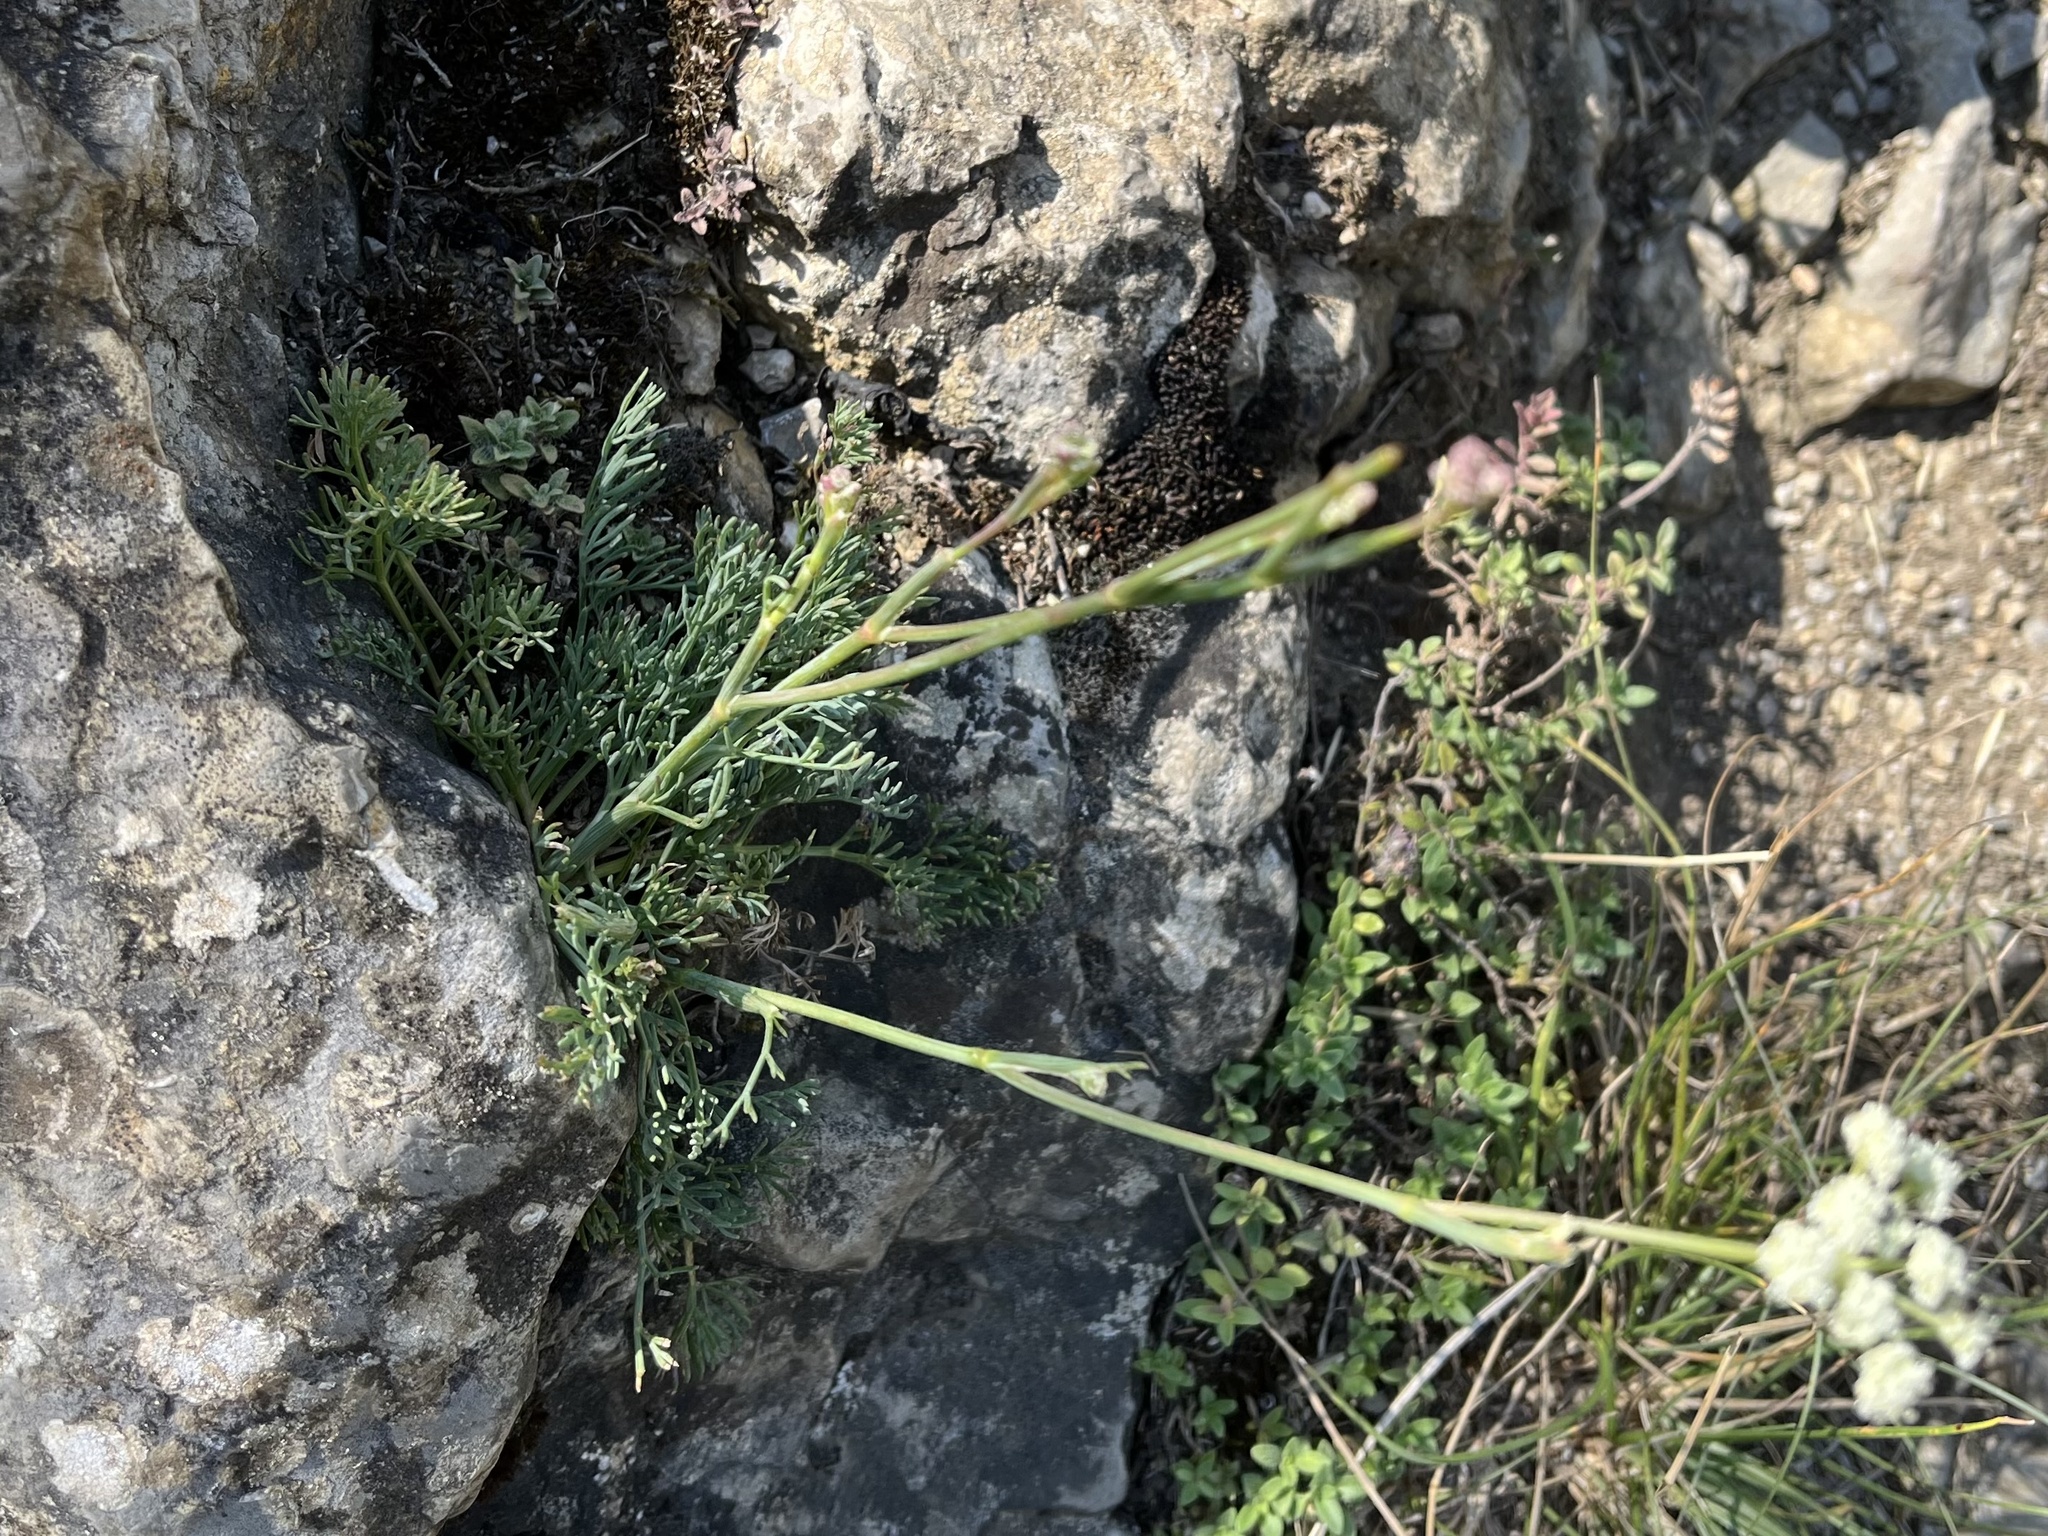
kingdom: Plantae
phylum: Tracheophyta
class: Magnoliopsida
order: Apiales
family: Apiaceae
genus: Hippomarathrum
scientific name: Hippomarathrum
